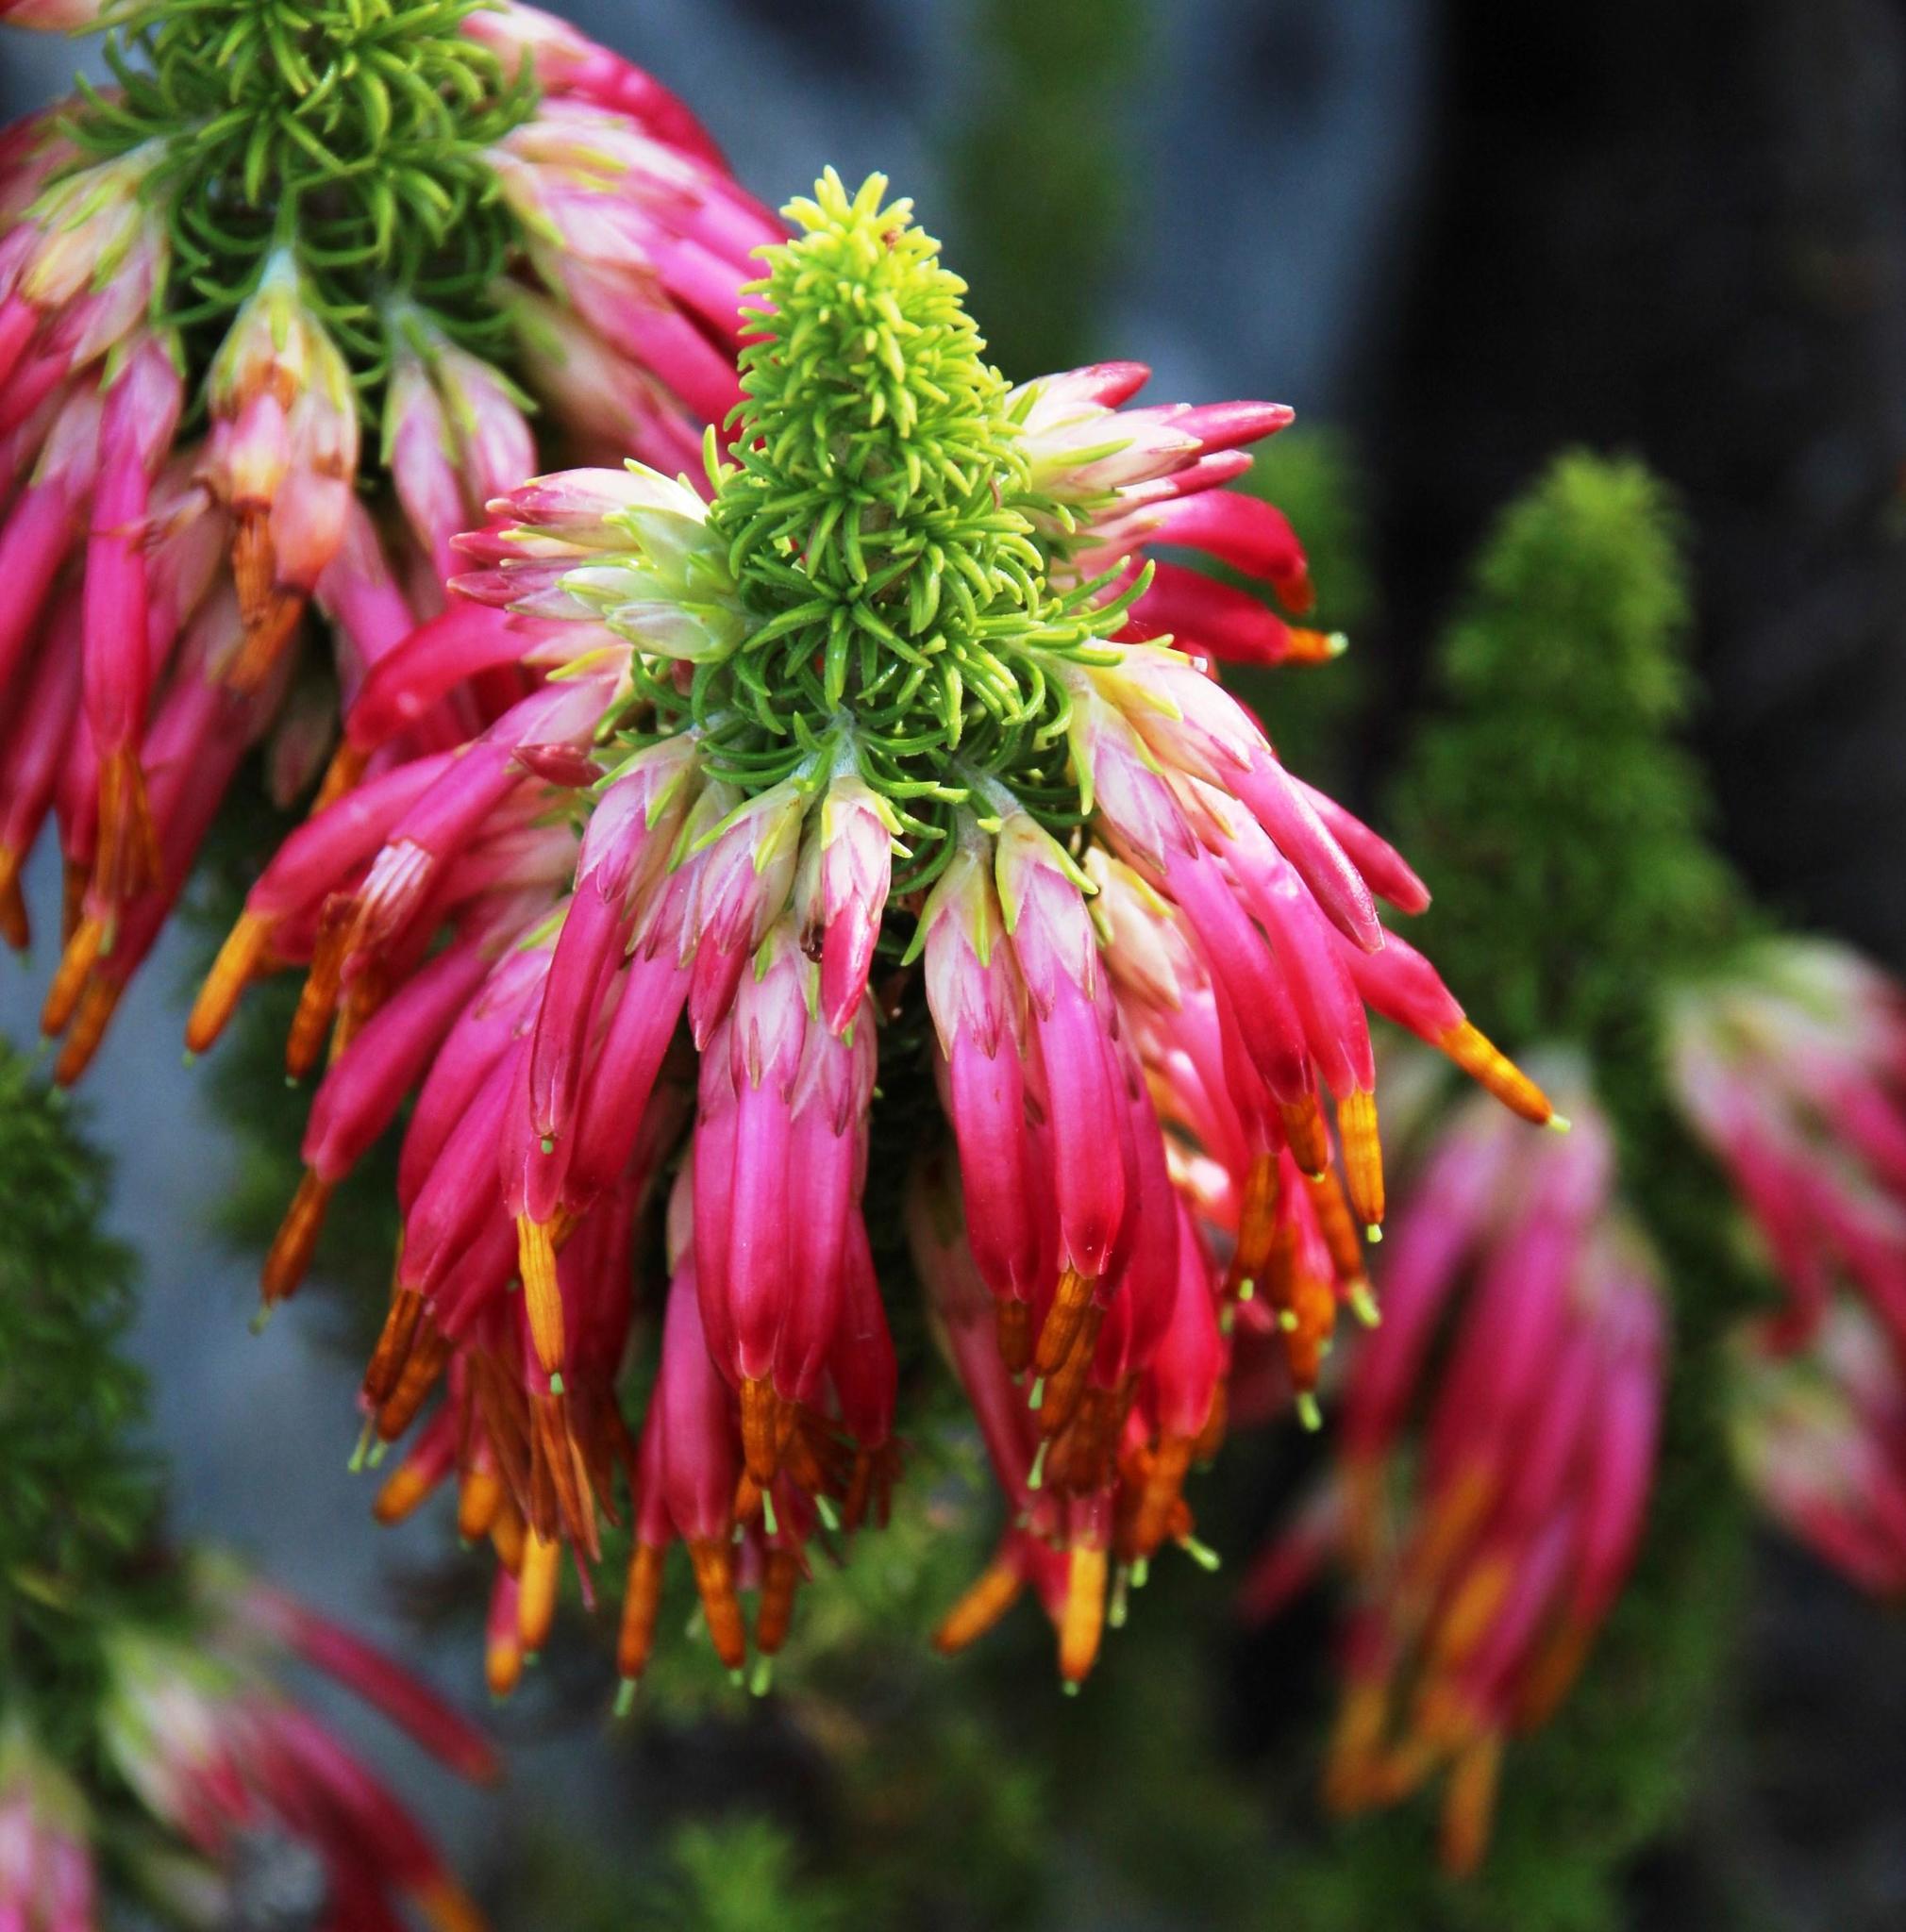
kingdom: Plantae
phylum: Tracheophyta
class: Magnoliopsida
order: Ericales
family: Ericaceae
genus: Erica
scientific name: Erica coccinea
